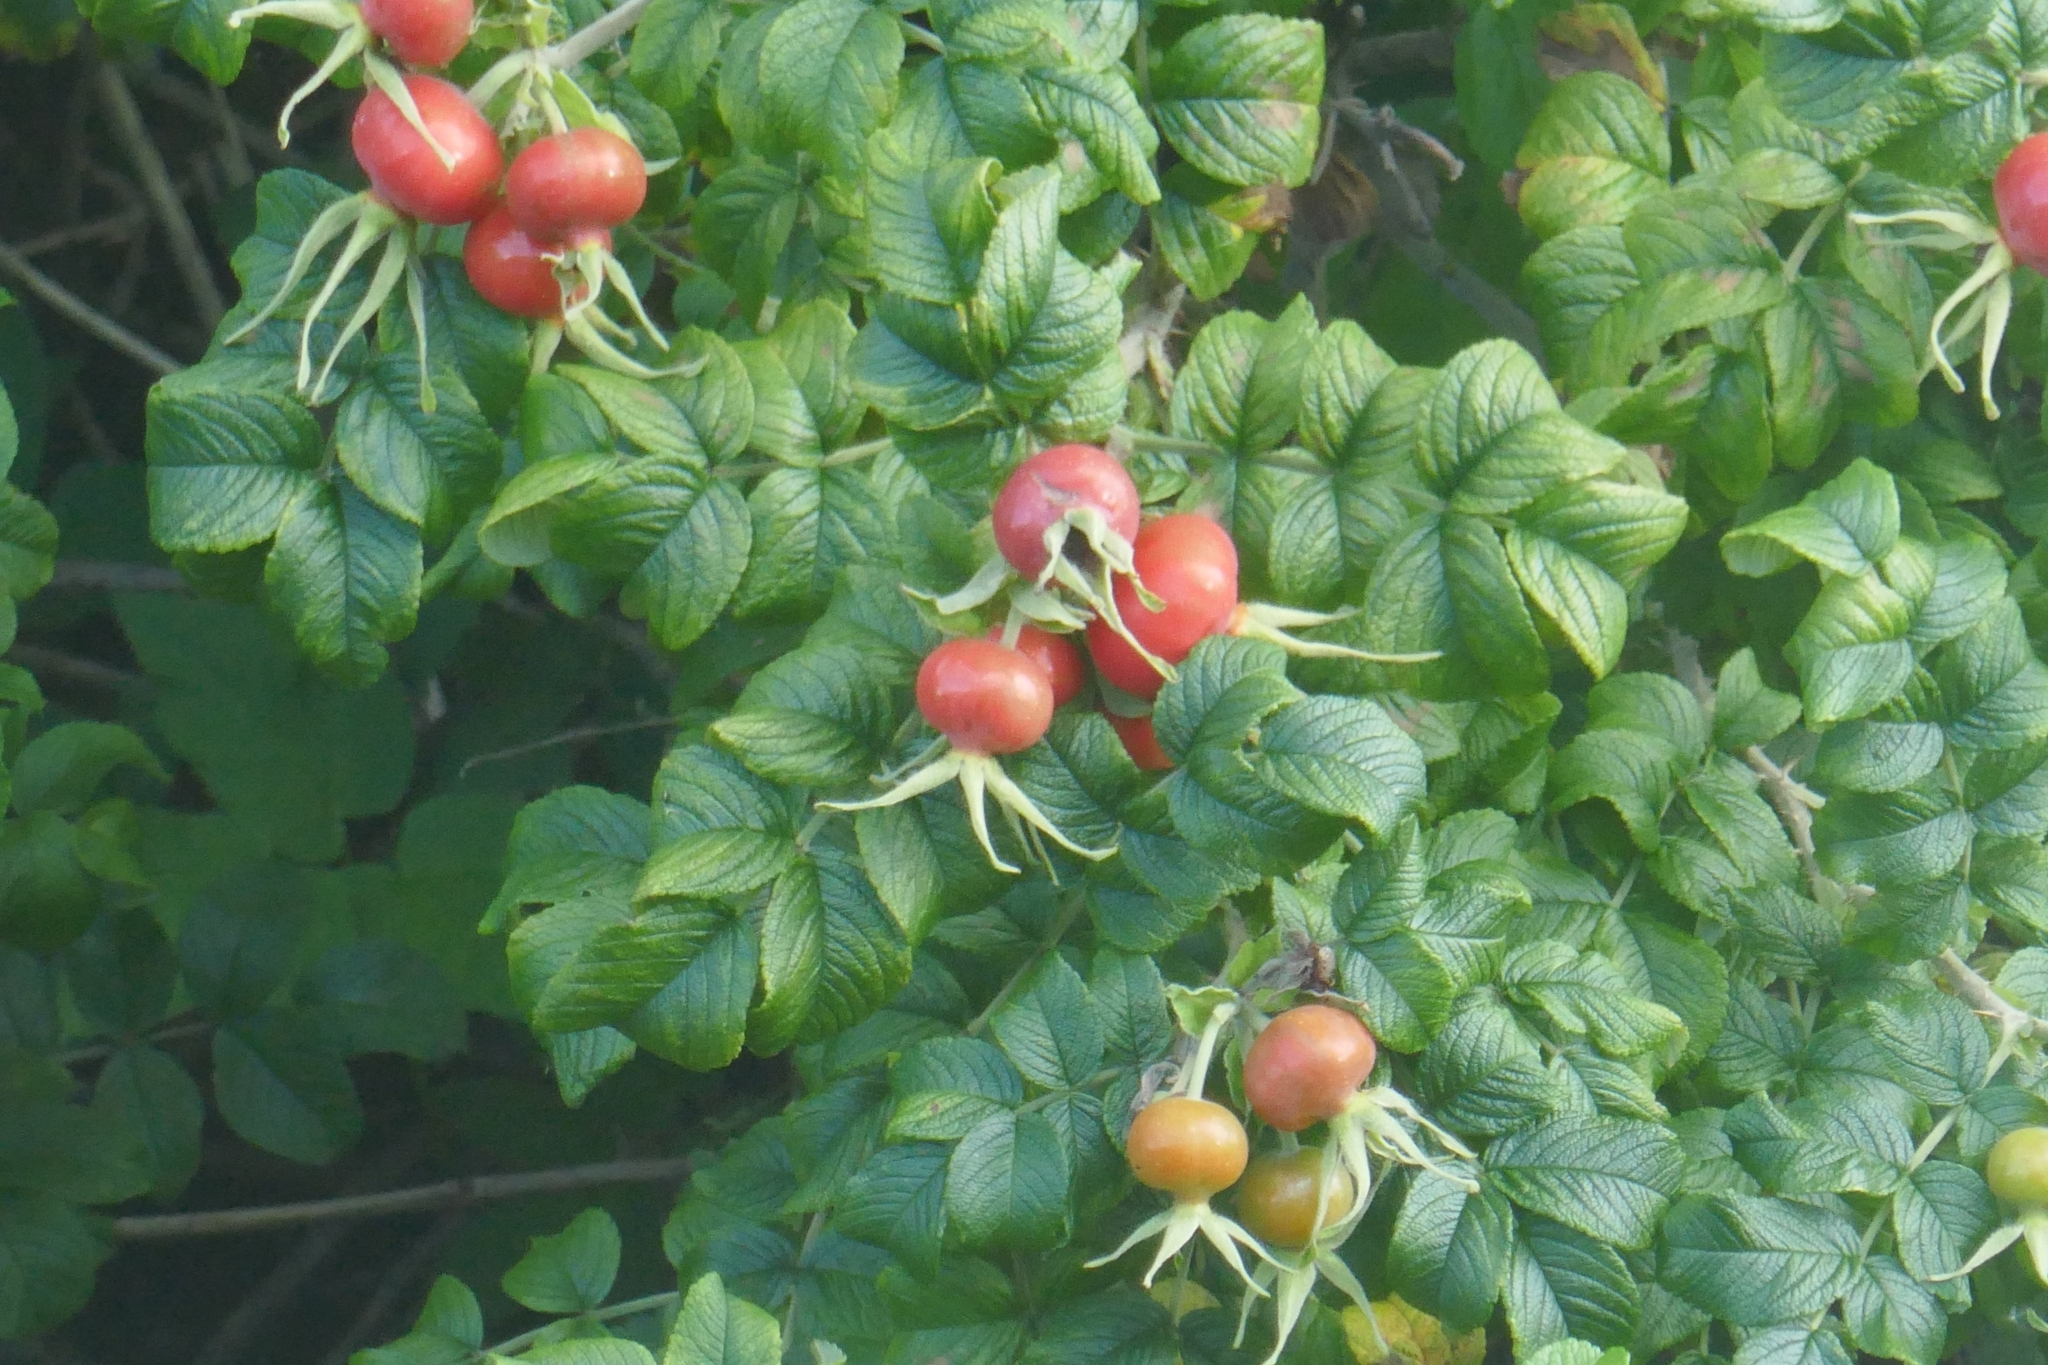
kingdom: Plantae
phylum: Tracheophyta
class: Magnoliopsida
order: Rosales
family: Rosaceae
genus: Rosa
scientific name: Rosa rugosa
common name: Japanese rose
